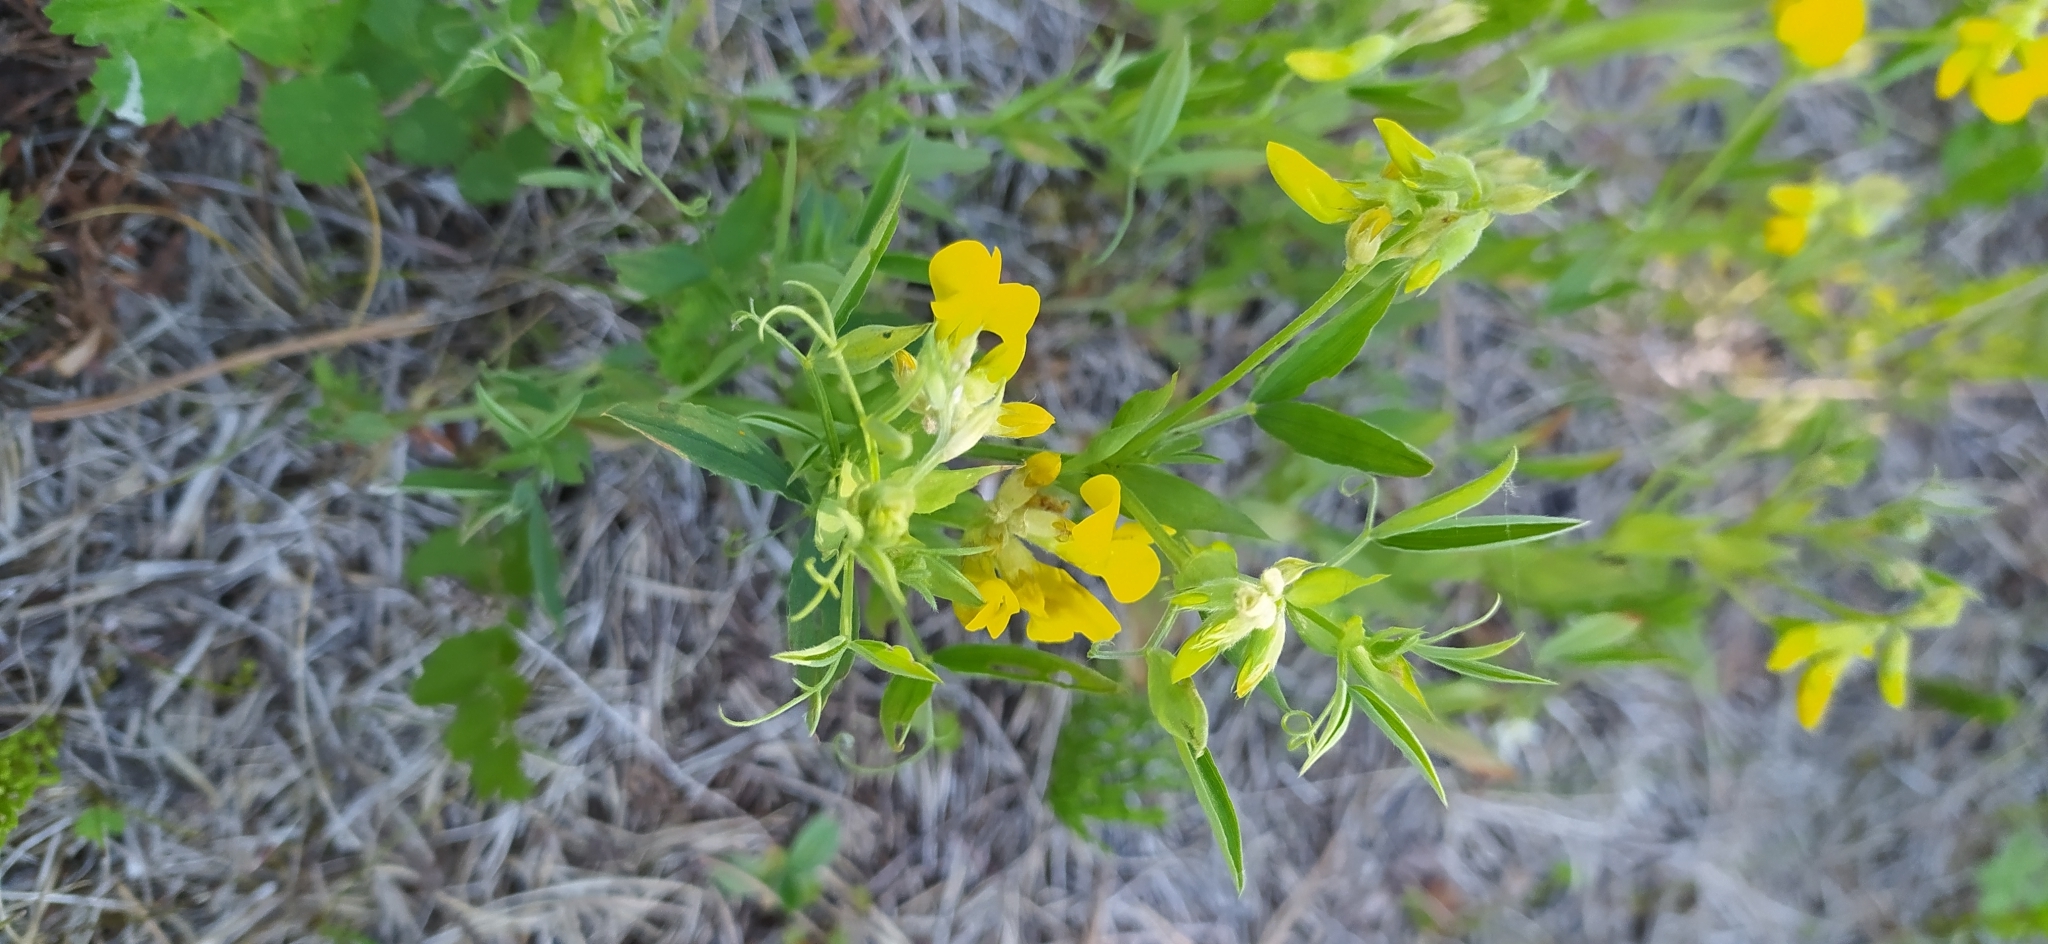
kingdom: Plantae
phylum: Tracheophyta
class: Magnoliopsida
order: Fabales
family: Fabaceae
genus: Lathyrus
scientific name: Lathyrus pratensis
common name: Meadow vetchling
